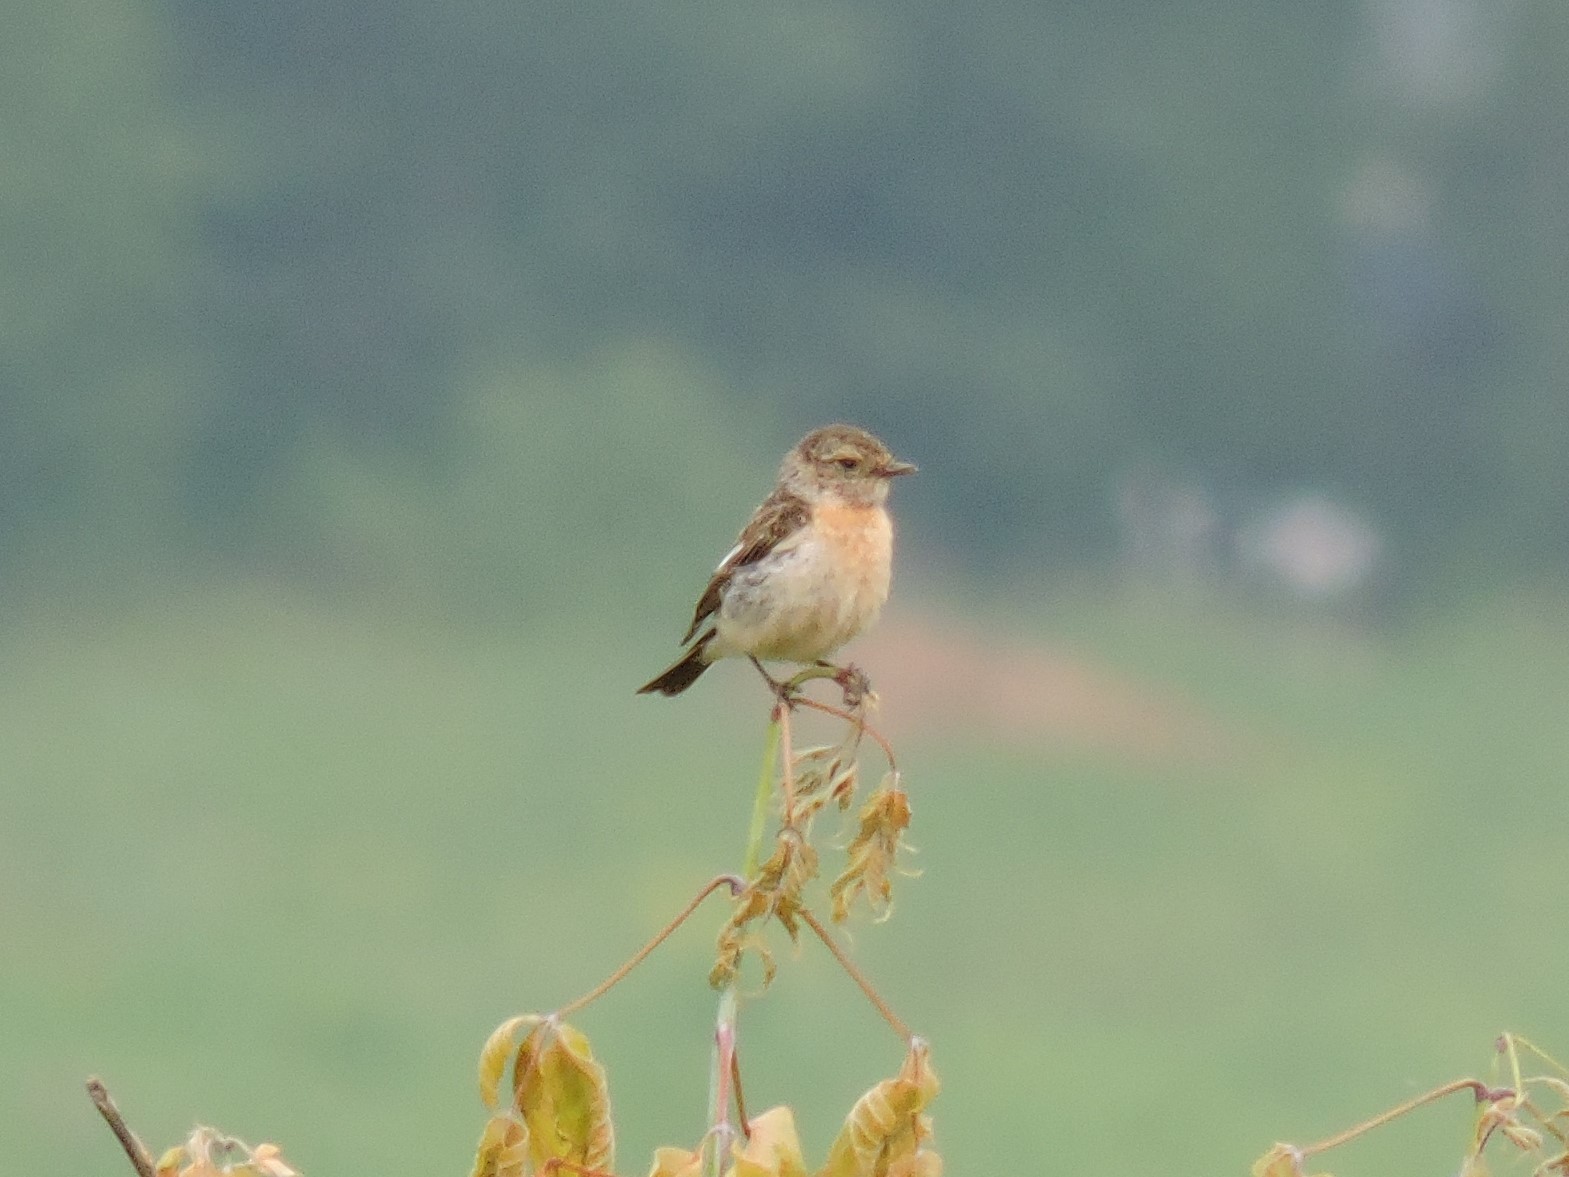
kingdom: Animalia
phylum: Chordata
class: Aves
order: Passeriformes
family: Muscicapidae
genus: Saxicola
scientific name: Saxicola maurus
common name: Siberian stonechat
